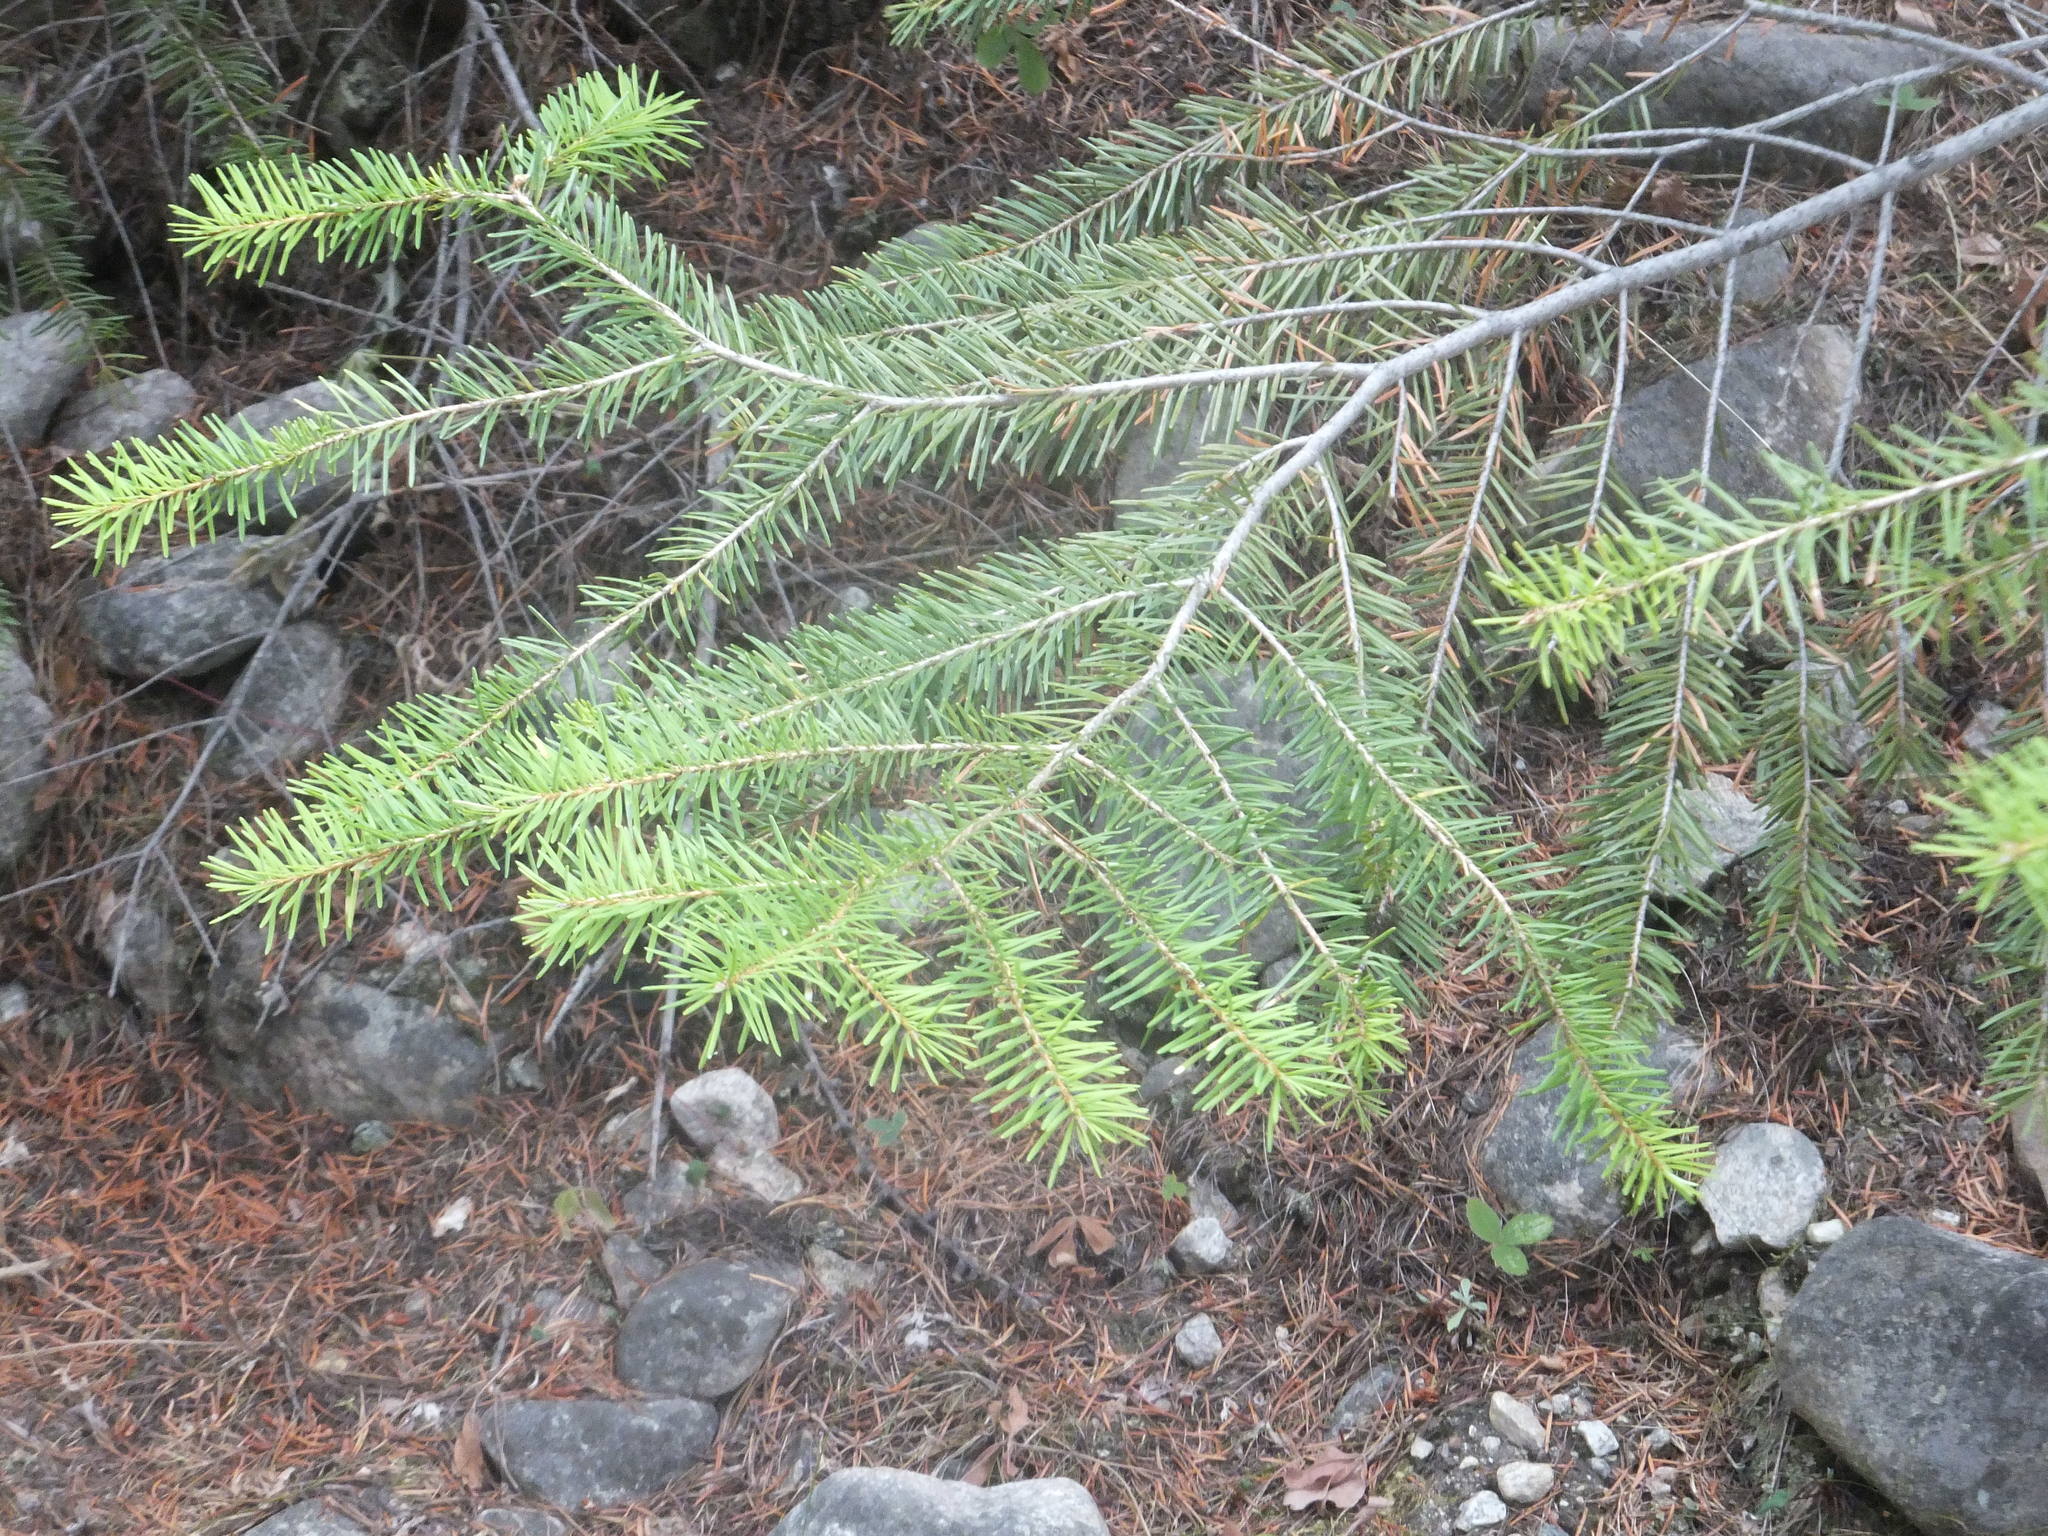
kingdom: Plantae
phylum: Tracheophyta
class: Pinopsida
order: Pinales
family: Pinaceae
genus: Pseudotsuga
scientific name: Pseudotsuga menziesii
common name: Douglas fir
